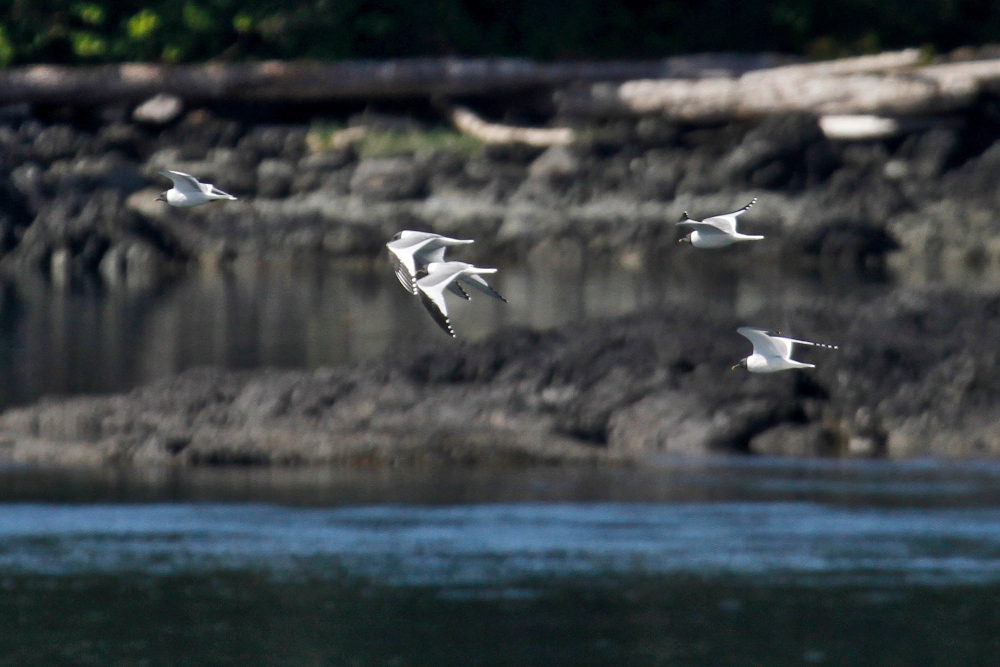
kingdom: Animalia
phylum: Chordata
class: Aves
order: Charadriiformes
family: Laridae
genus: Xema
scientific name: Xema sabini
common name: Sabine's gull
